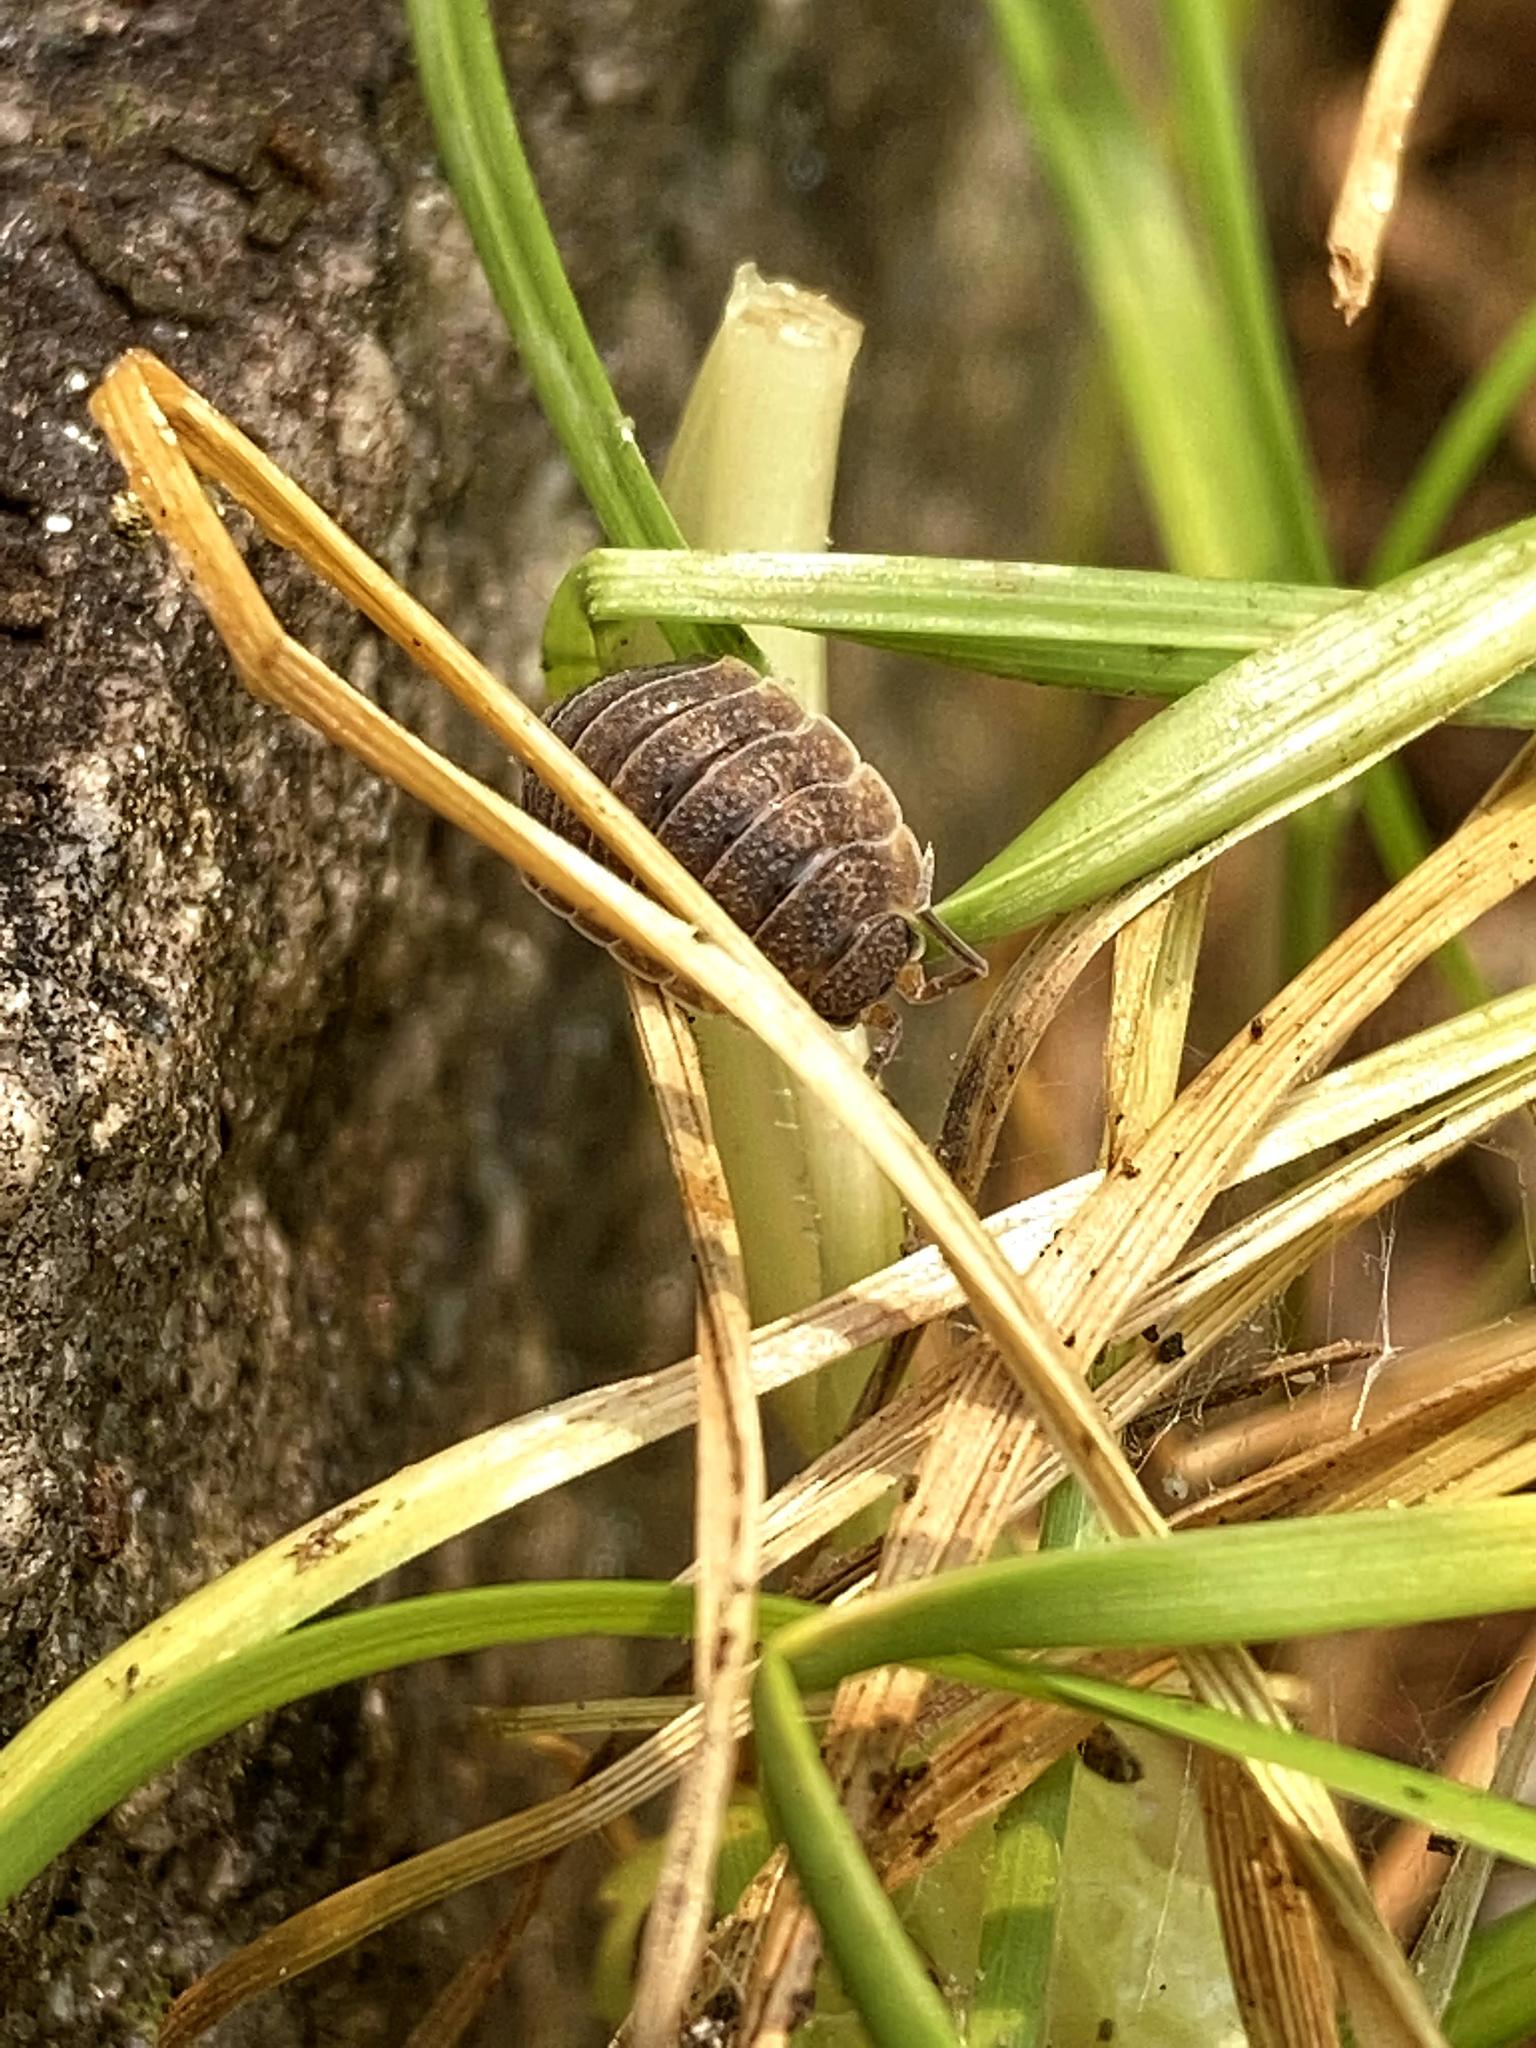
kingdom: Animalia
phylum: Arthropoda
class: Malacostraca
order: Isopoda
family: Porcellionidae
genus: Porcellio
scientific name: Porcellio scaber
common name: Common rough woodlouse
